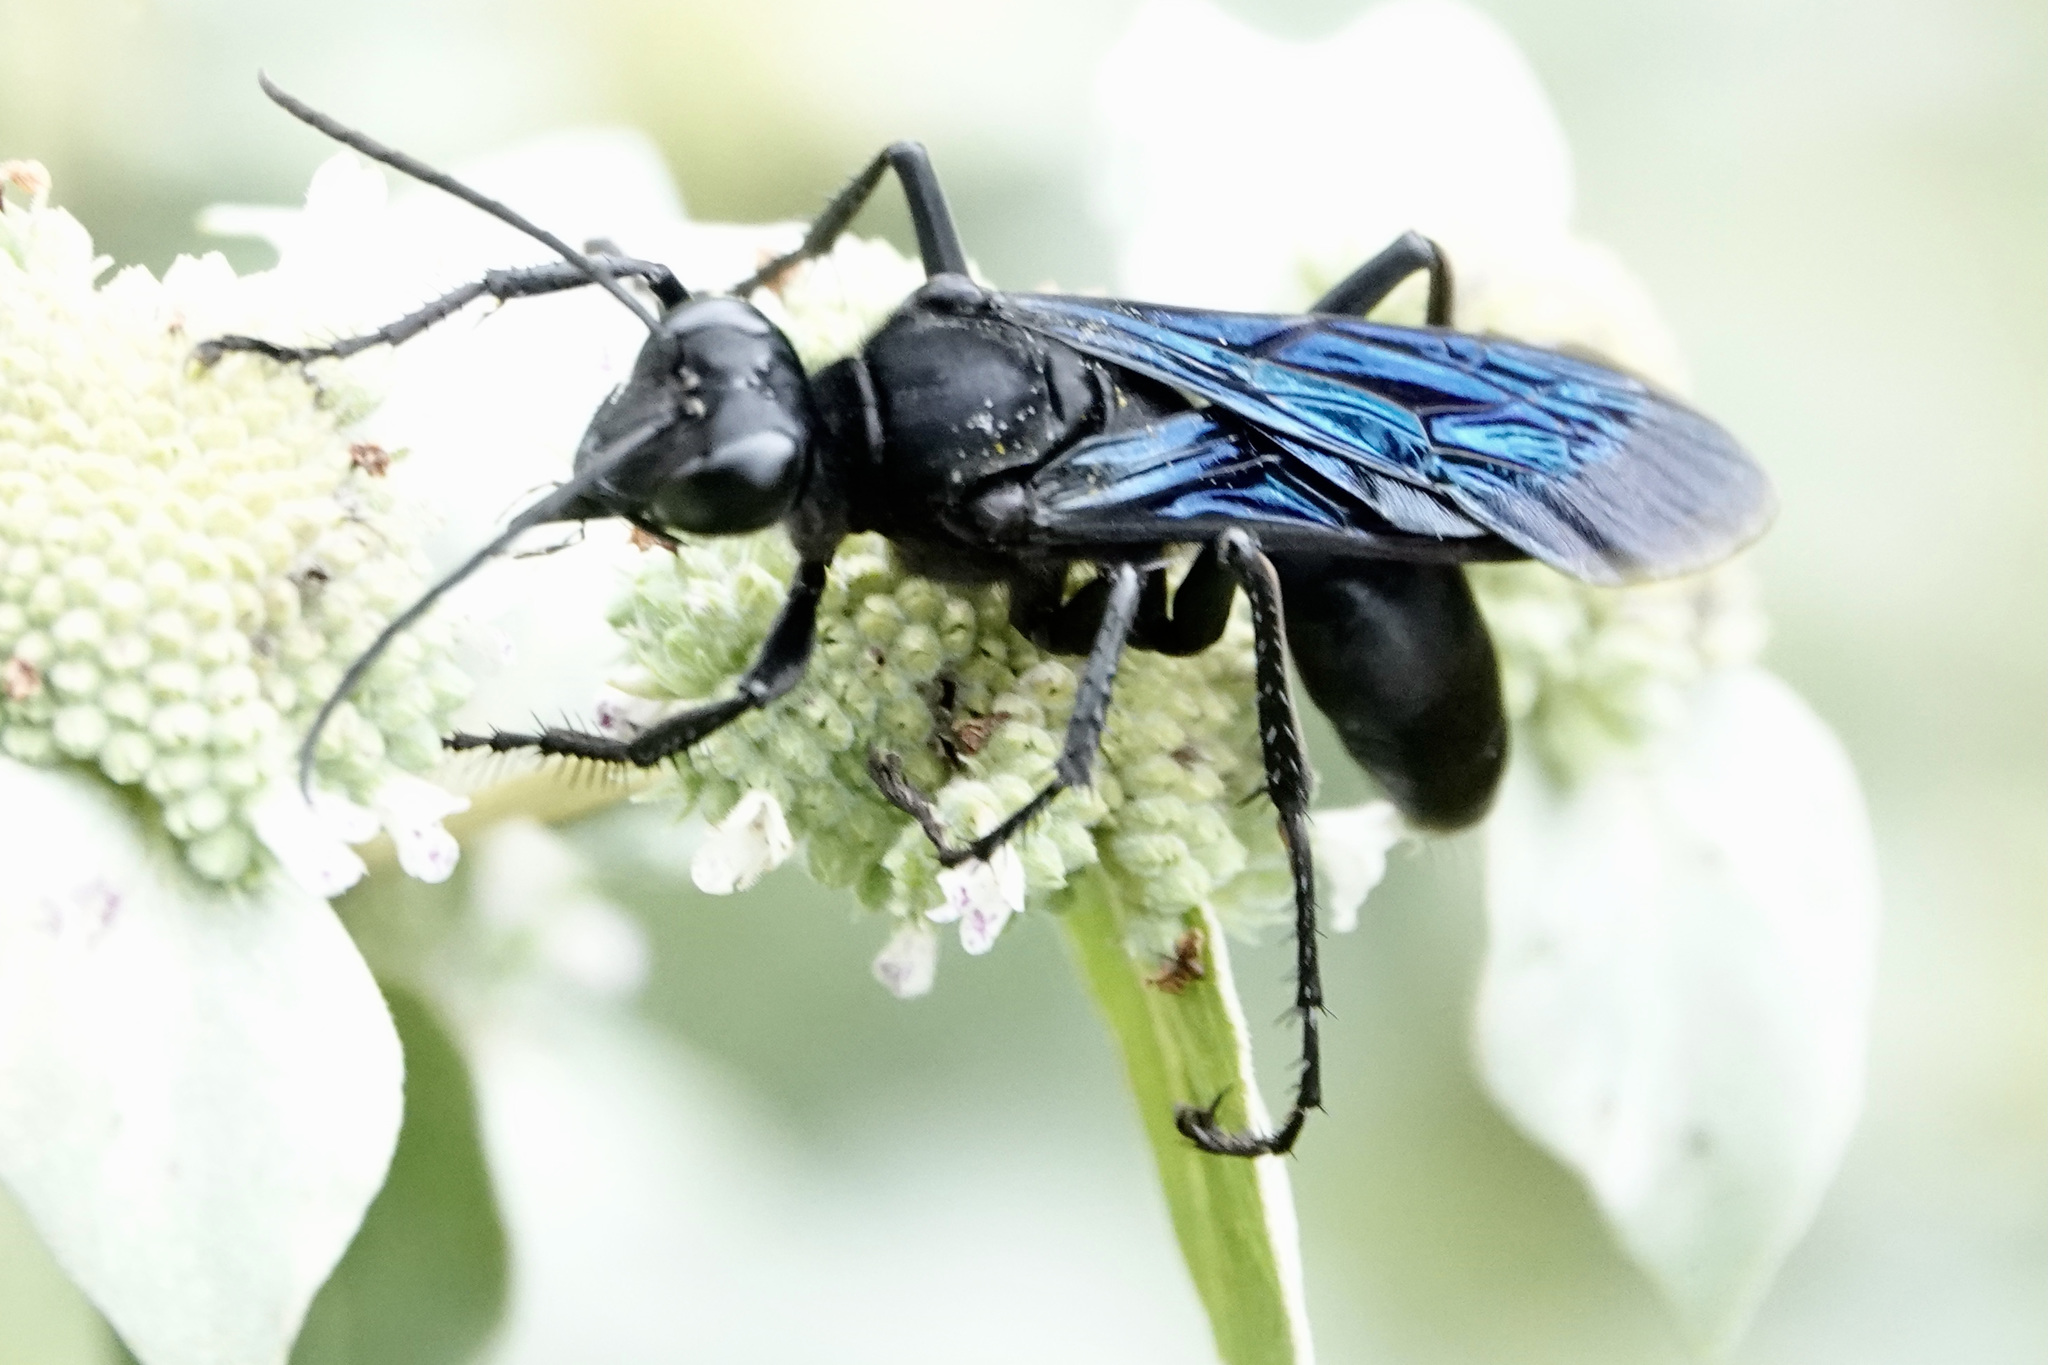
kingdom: Animalia
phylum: Arthropoda
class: Insecta
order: Hymenoptera
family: Sphecidae
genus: Sphex
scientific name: Sphex pensylvanicus
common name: Great black digger wasp
